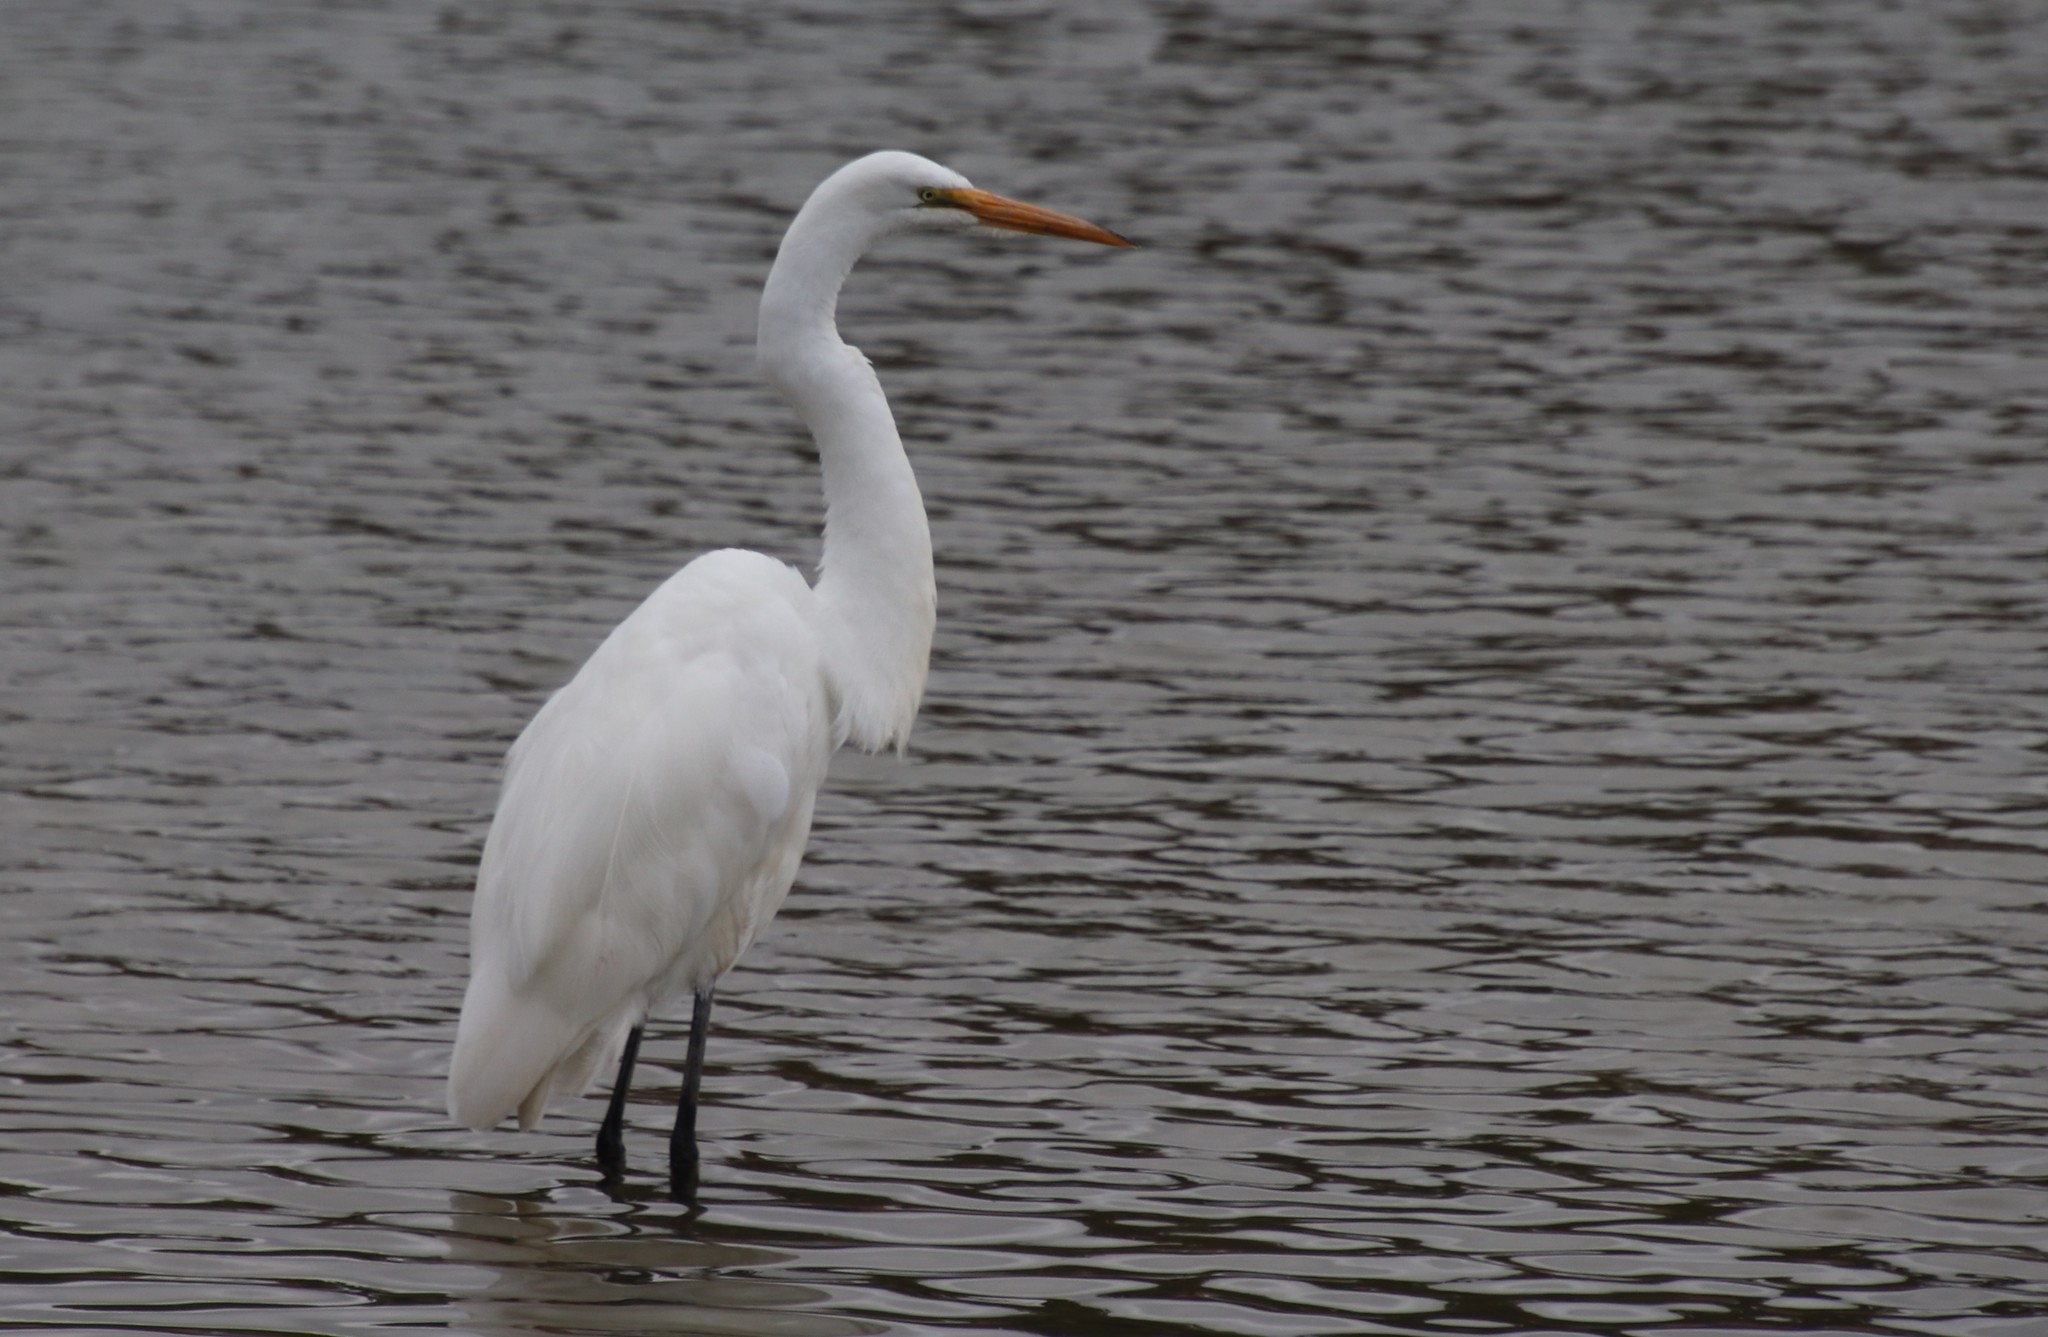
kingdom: Animalia
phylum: Chordata
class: Aves
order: Pelecaniformes
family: Ardeidae
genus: Ardea
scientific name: Ardea alba
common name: Great egret
